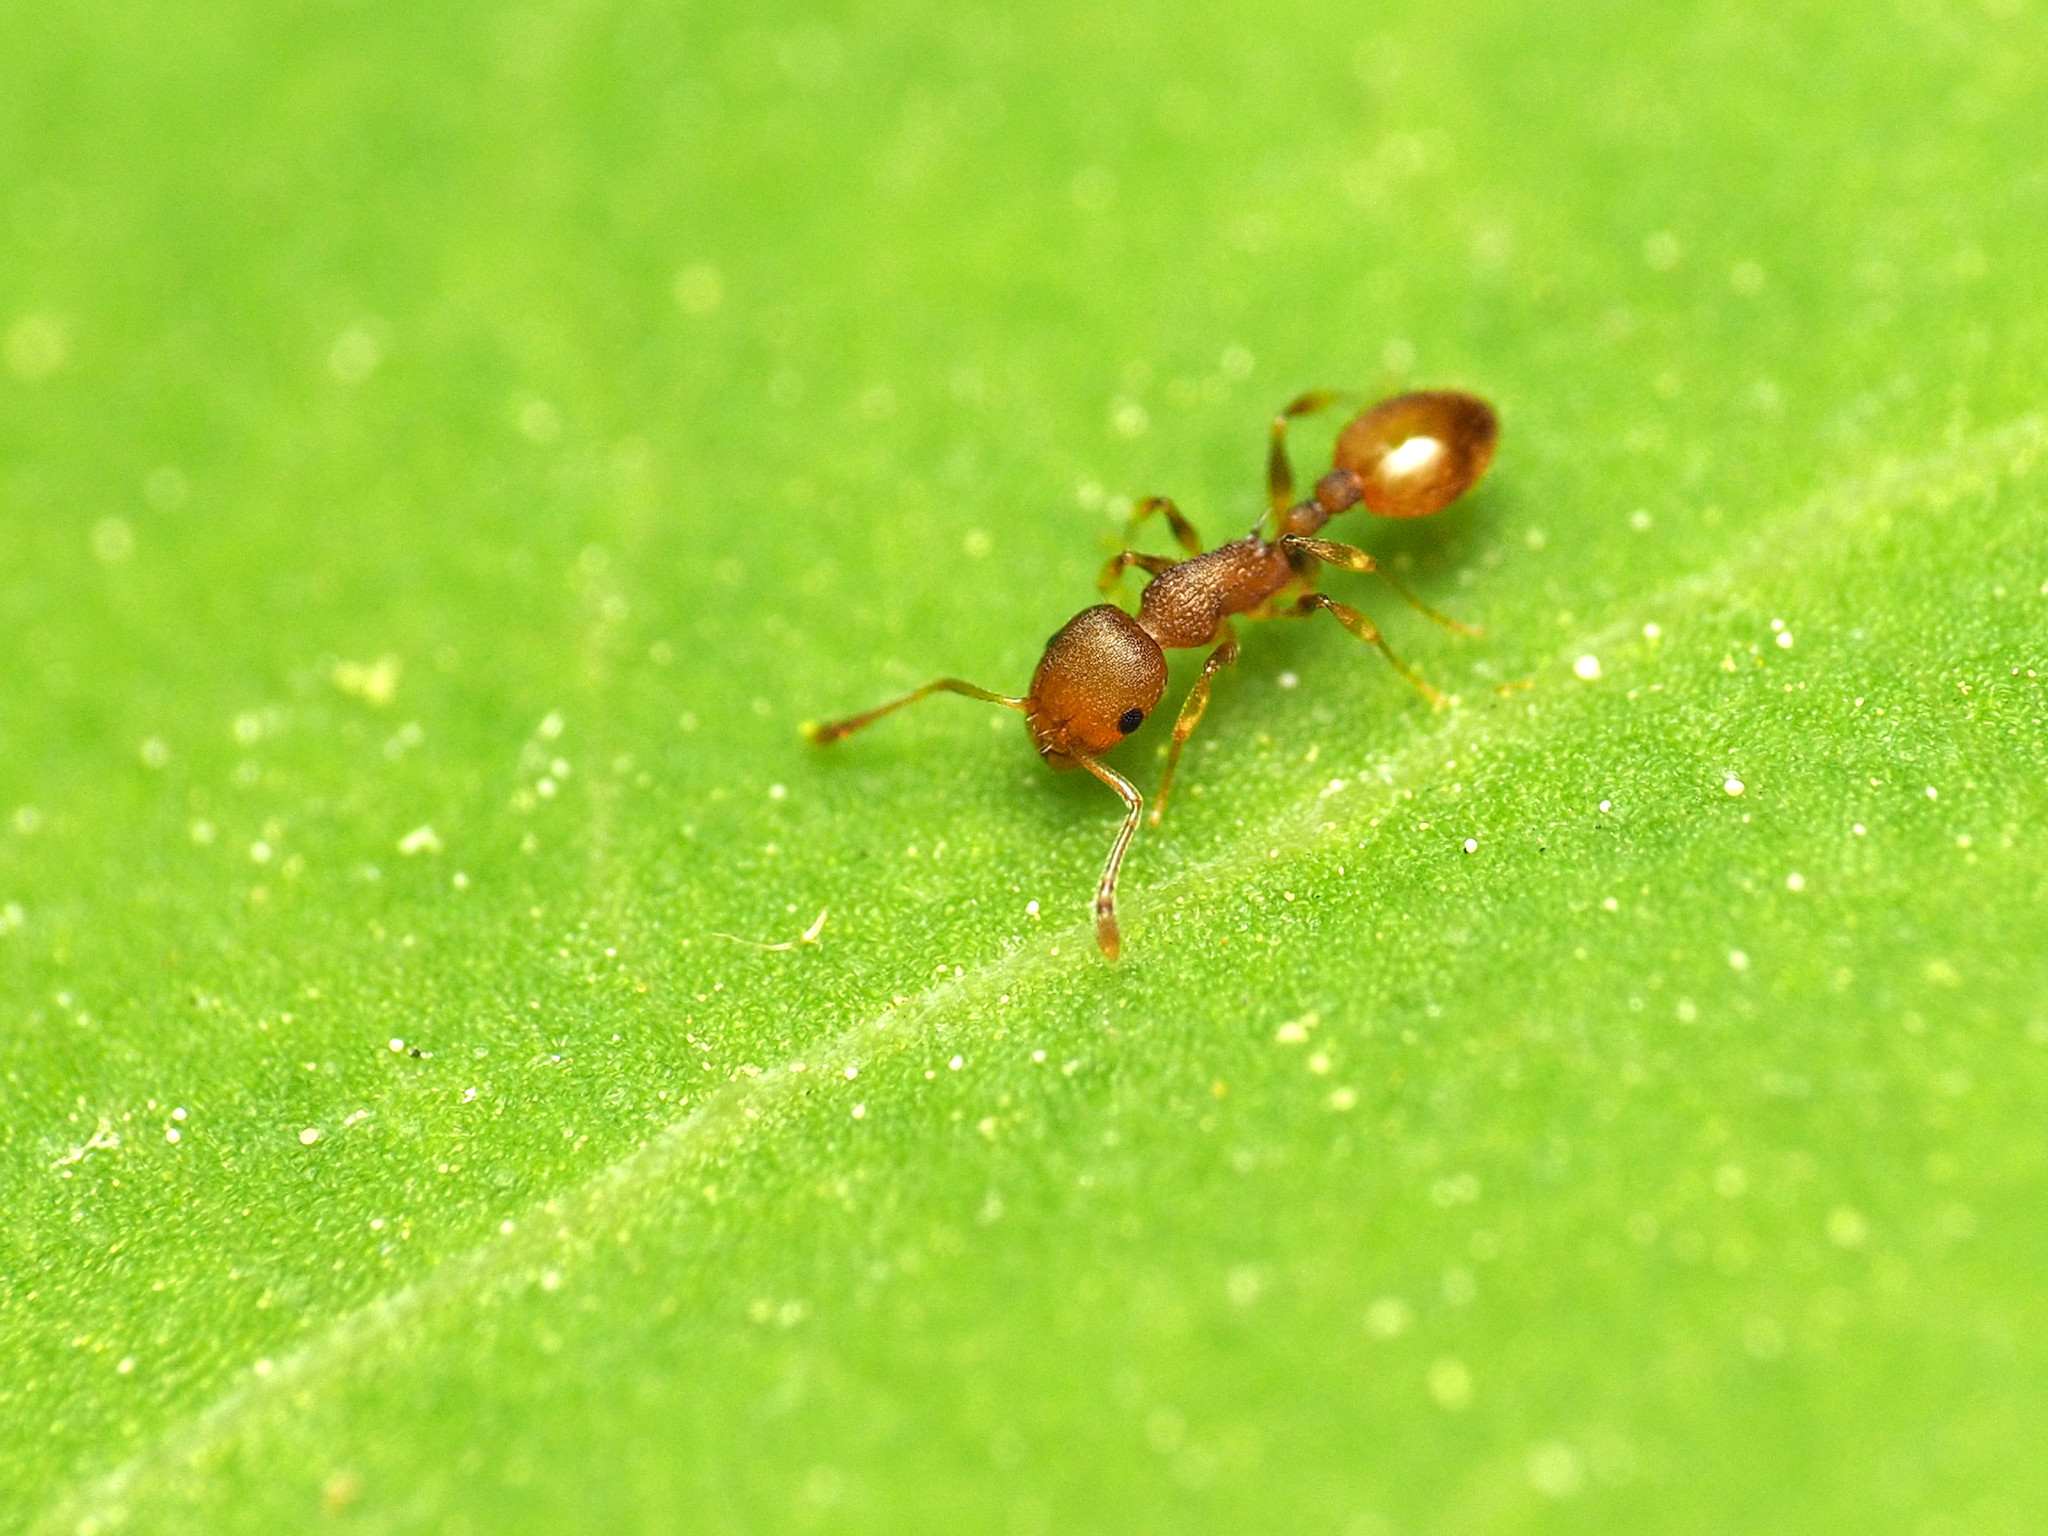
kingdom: Animalia
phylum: Arthropoda
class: Insecta
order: Hymenoptera
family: Formicidae
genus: Temnothorax
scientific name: Temnothorax curvispinosus
